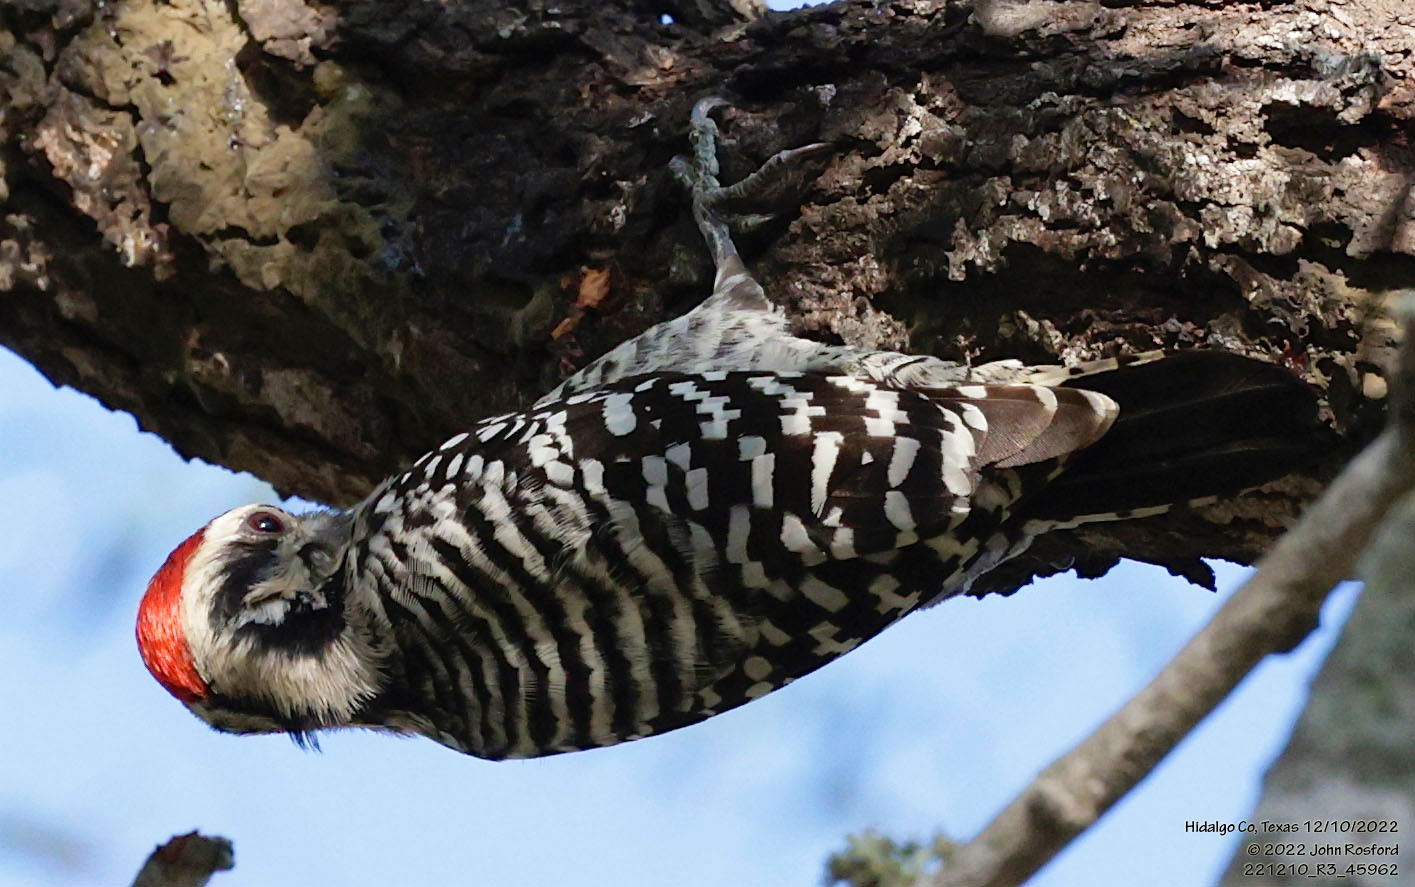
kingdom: Animalia
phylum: Chordata
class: Aves
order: Piciformes
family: Picidae
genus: Dryobates
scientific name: Dryobates scalaris
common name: Ladder-backed woodpecker
